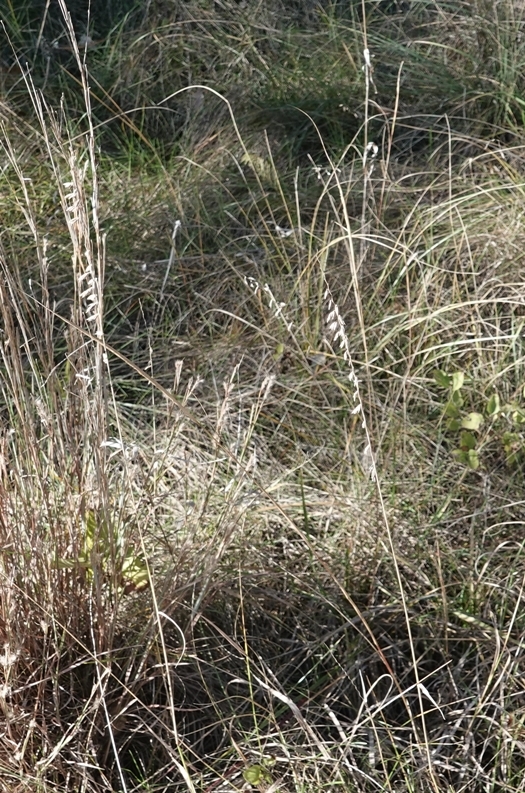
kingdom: Plantae
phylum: Tracheophyta
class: Liliopsida
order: Poales
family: Poaceae
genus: Bouteloua
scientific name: Bouteloua curtipendula
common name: Side-oats grama
